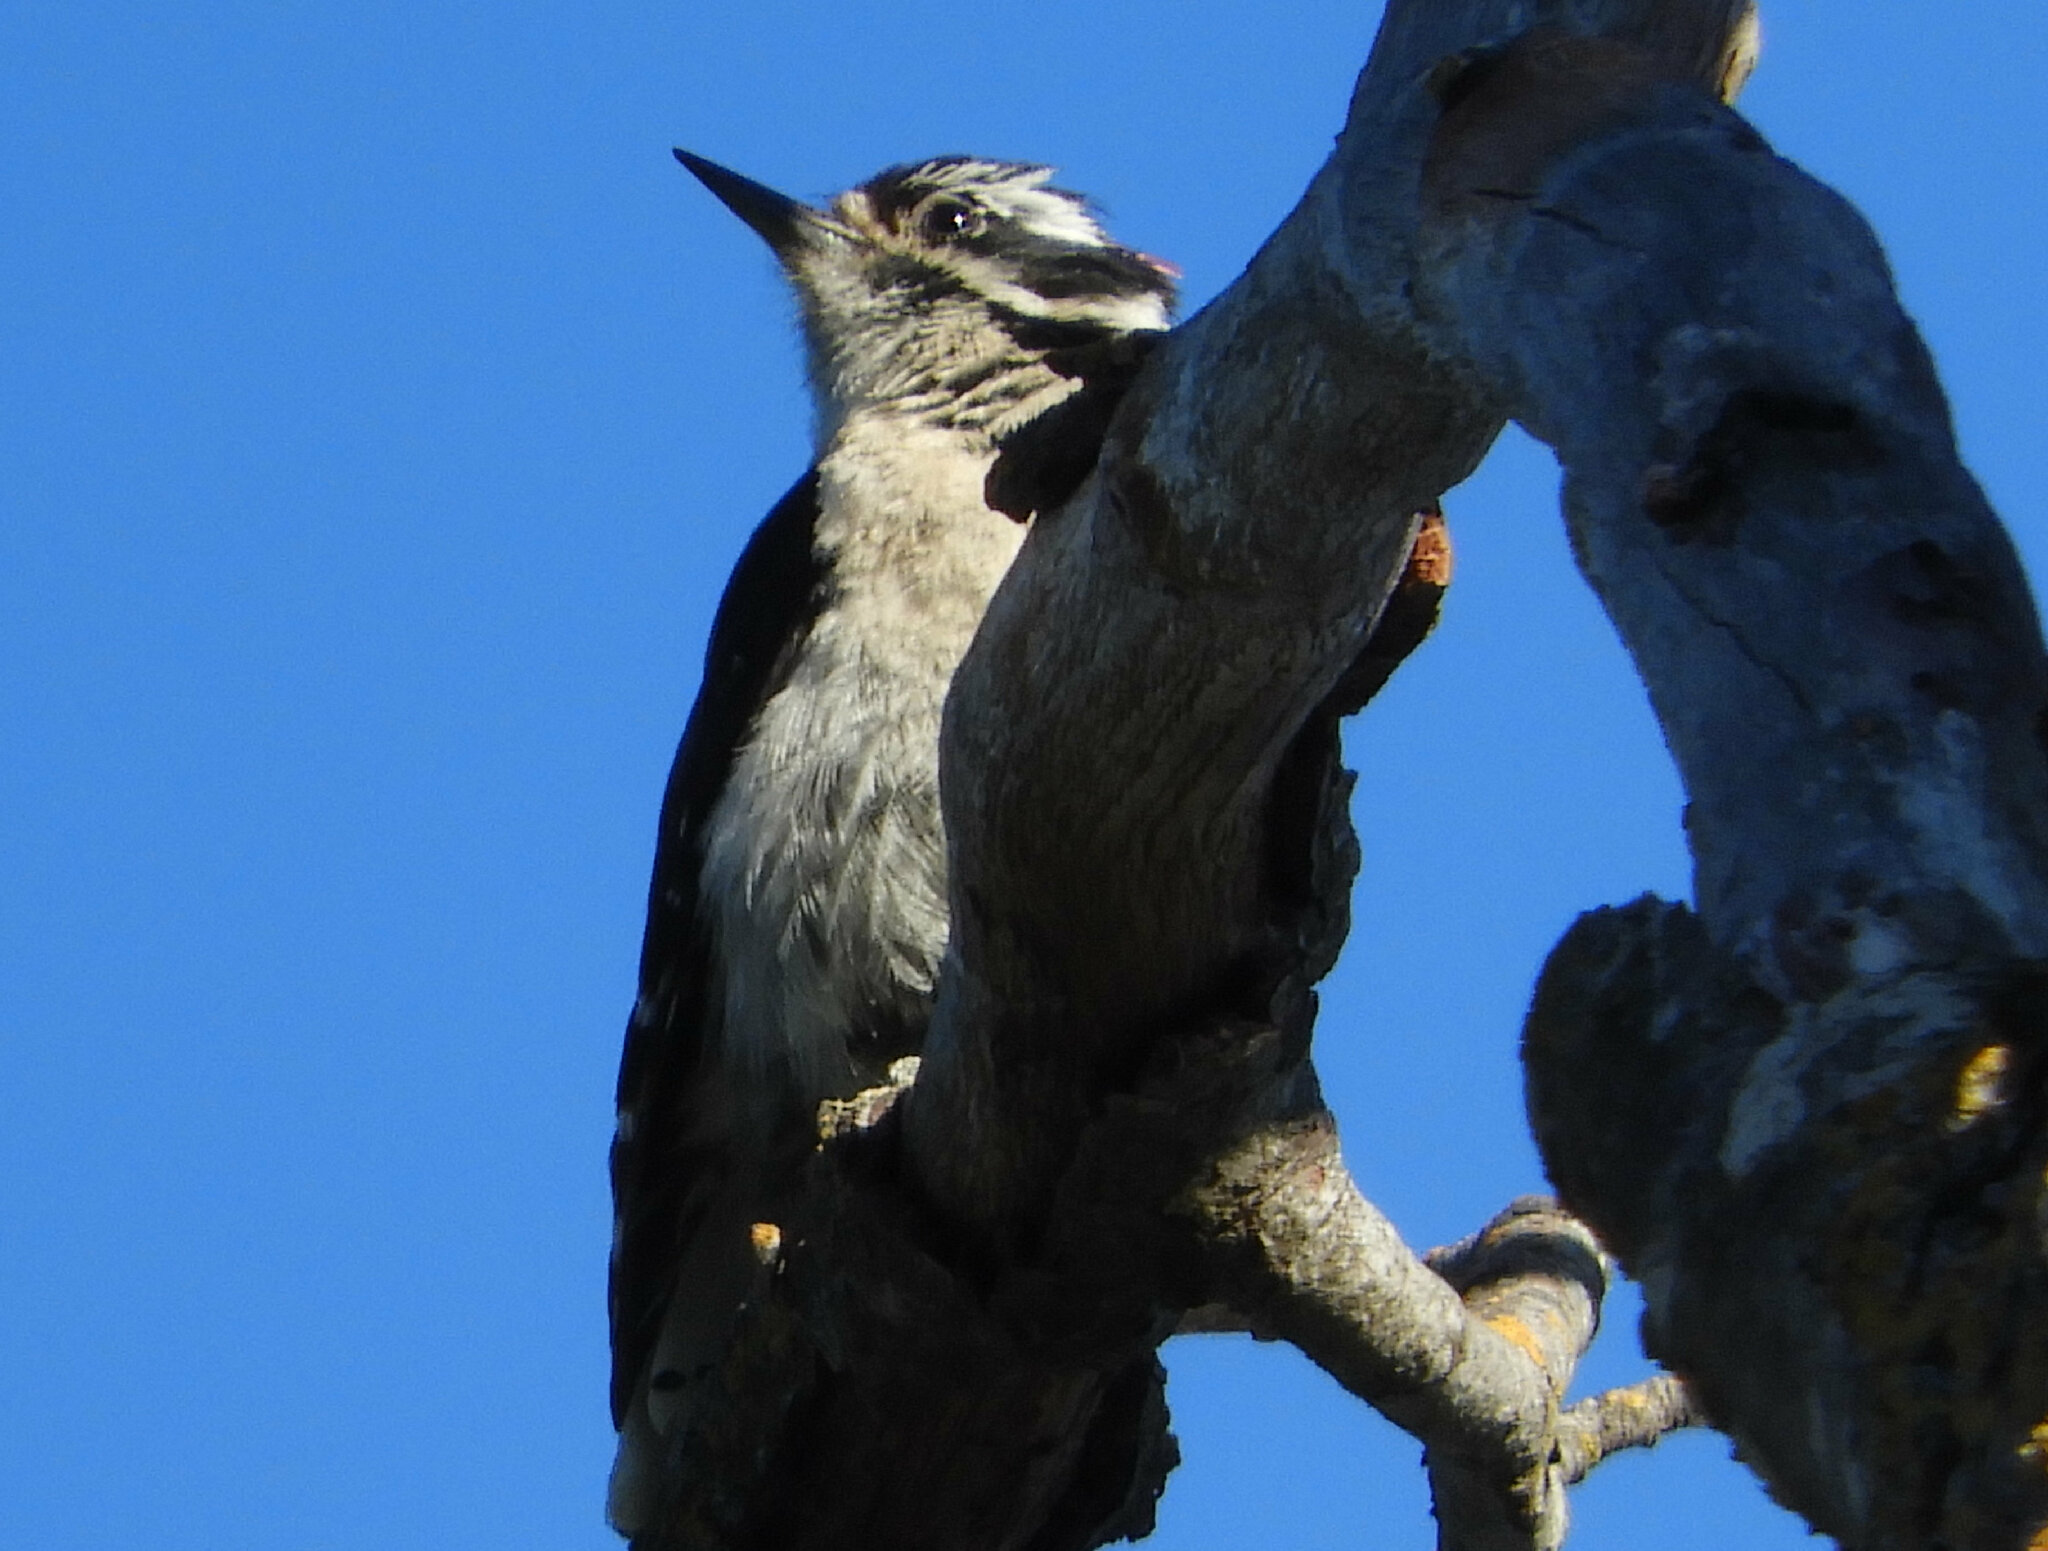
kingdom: Animalia
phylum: Chordata
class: Aves
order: Piciformes
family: Picidae
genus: Dryobates
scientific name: Dryobates pubescens
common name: Downy woodpecker
